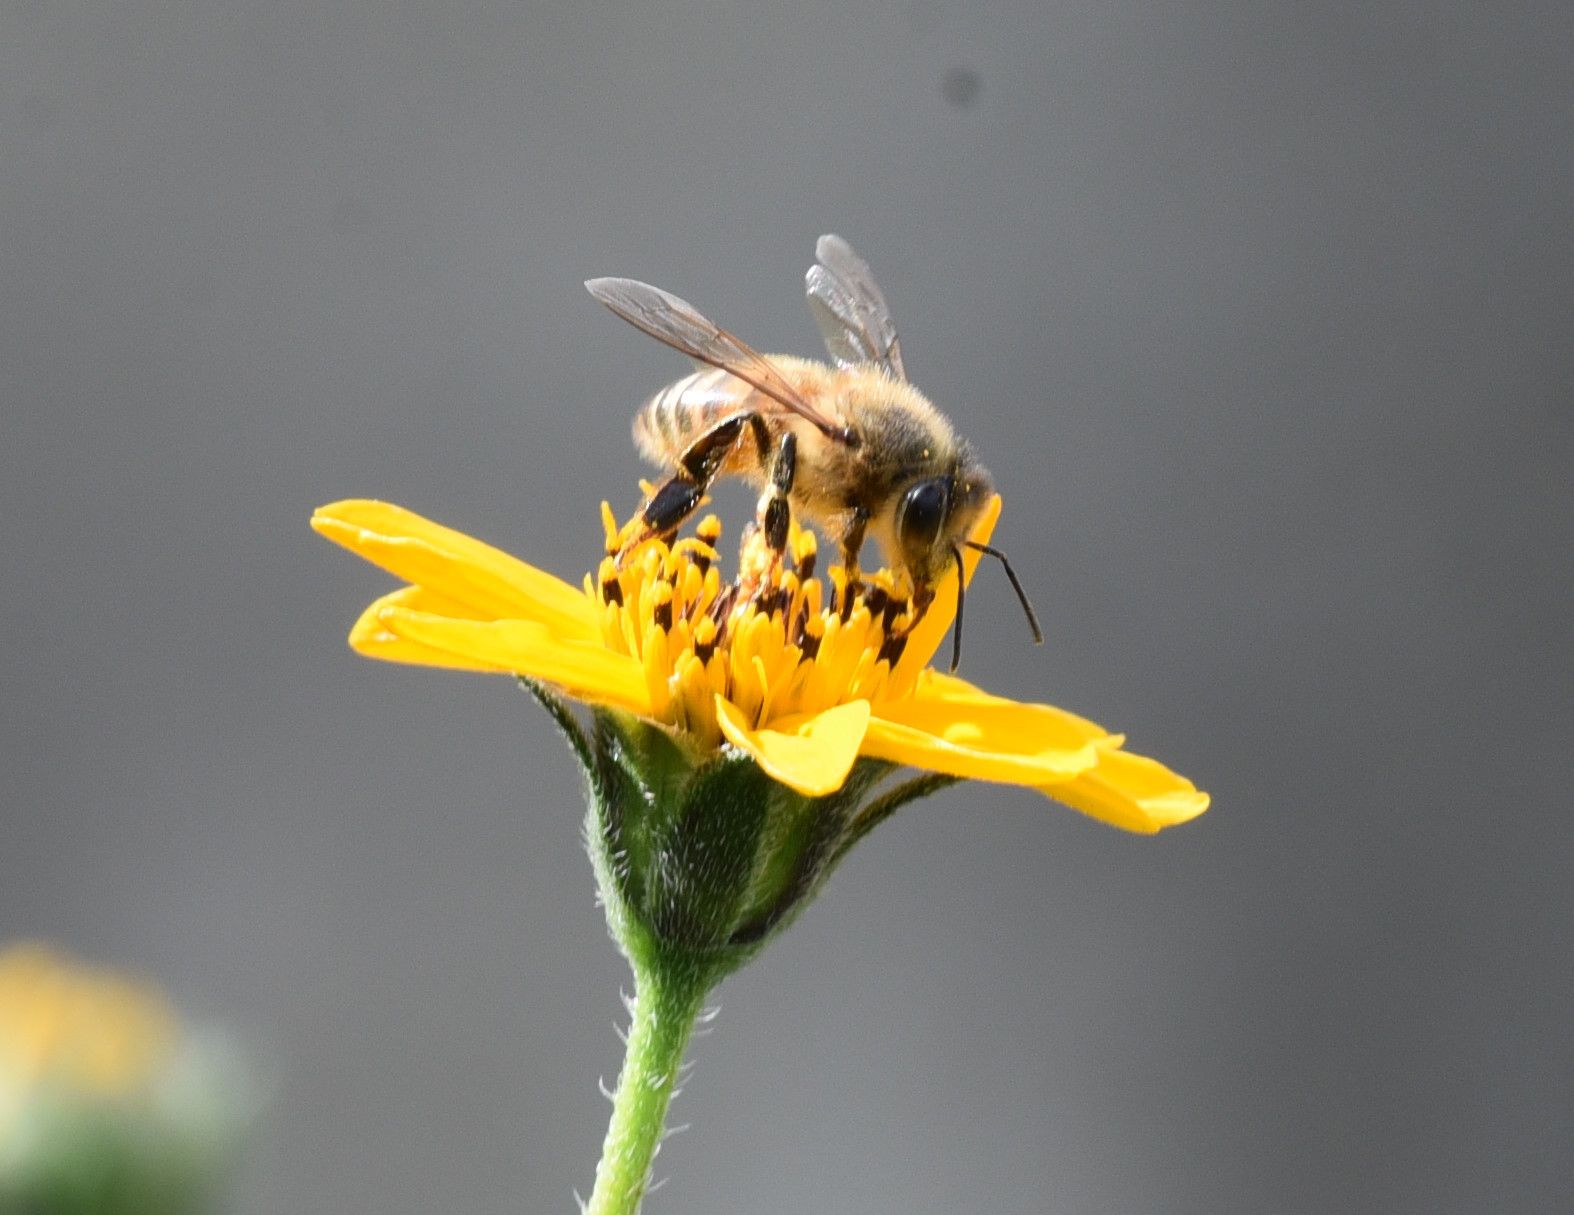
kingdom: Animalia
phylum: Arthropoda
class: Insecta
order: Hymenoptera
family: Apidae
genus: Apis
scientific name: Apis mellifera
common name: Honey bee
